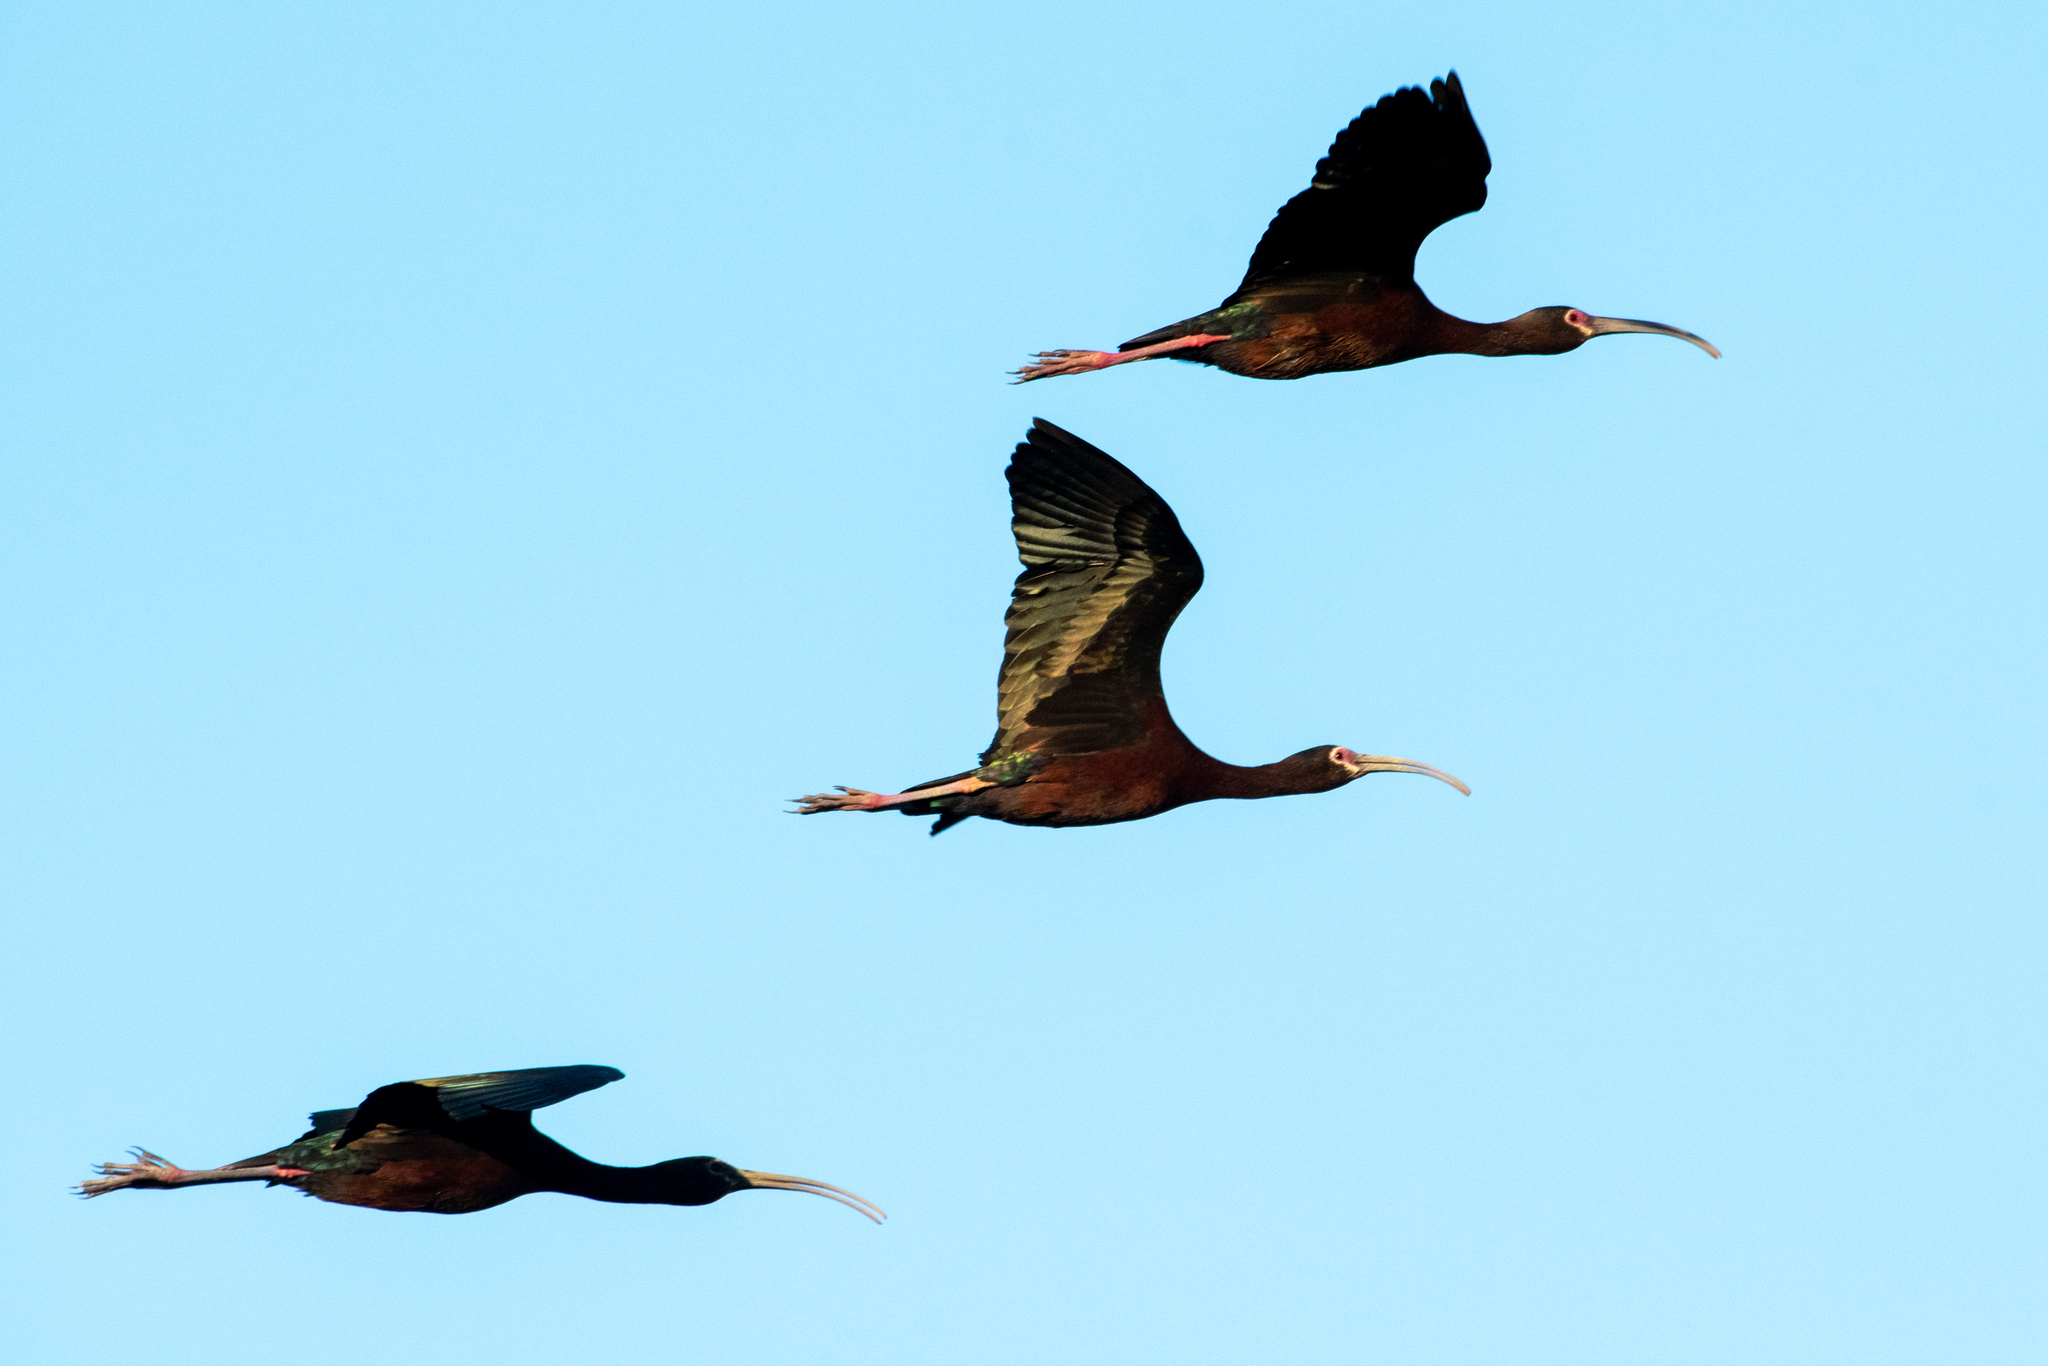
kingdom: Animalia
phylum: Chordata
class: Aves
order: Pelecaniformes
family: Threskiornithidae
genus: Plegadis
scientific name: Plegadis chihi
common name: White-faced ibis
